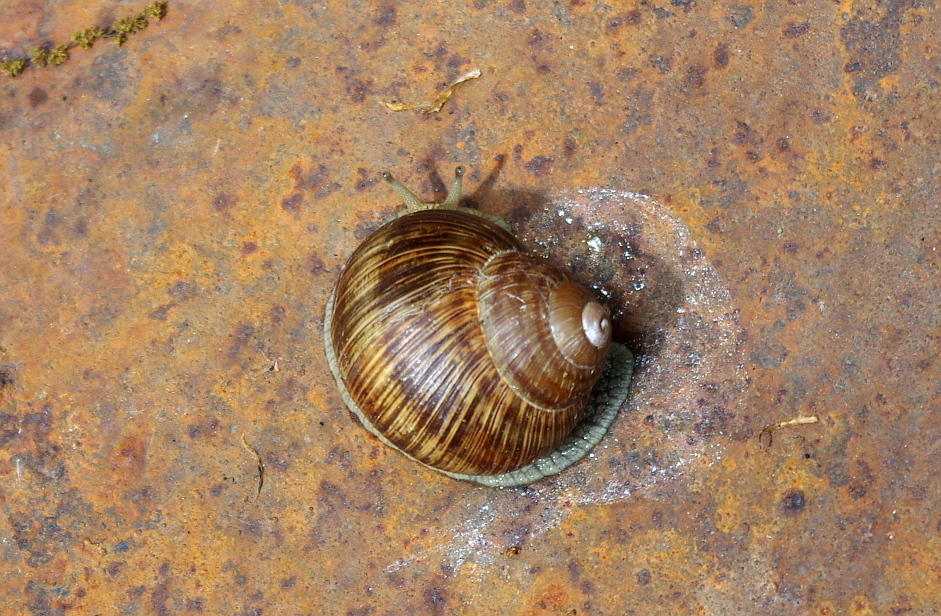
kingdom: Animalia
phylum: Mollusca
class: Gastropoda
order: Stylommatophora
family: Helicidae
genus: Helix
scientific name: Helix pomatia
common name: Roman snail
